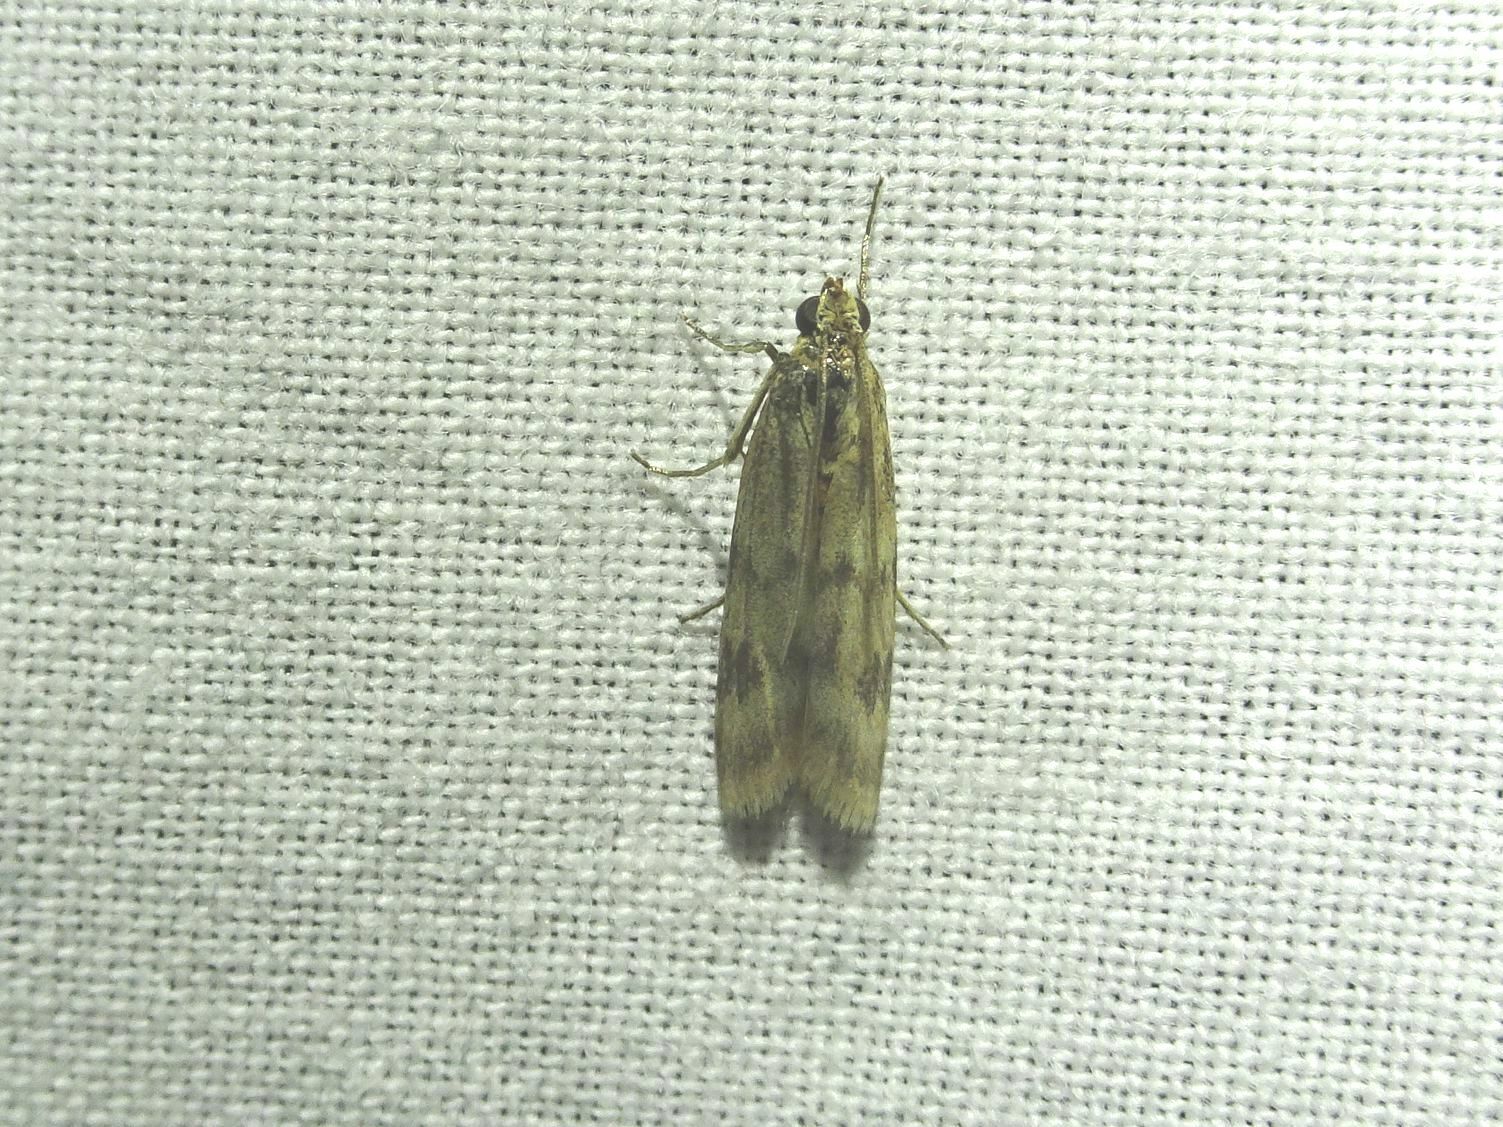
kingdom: Animalia
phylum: Arthropoda
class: Insecta
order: Lepidoptera
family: Pyralidae
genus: Homoeosoma
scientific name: Homoeosoma sinuella
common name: Twin-barred knot-horn
